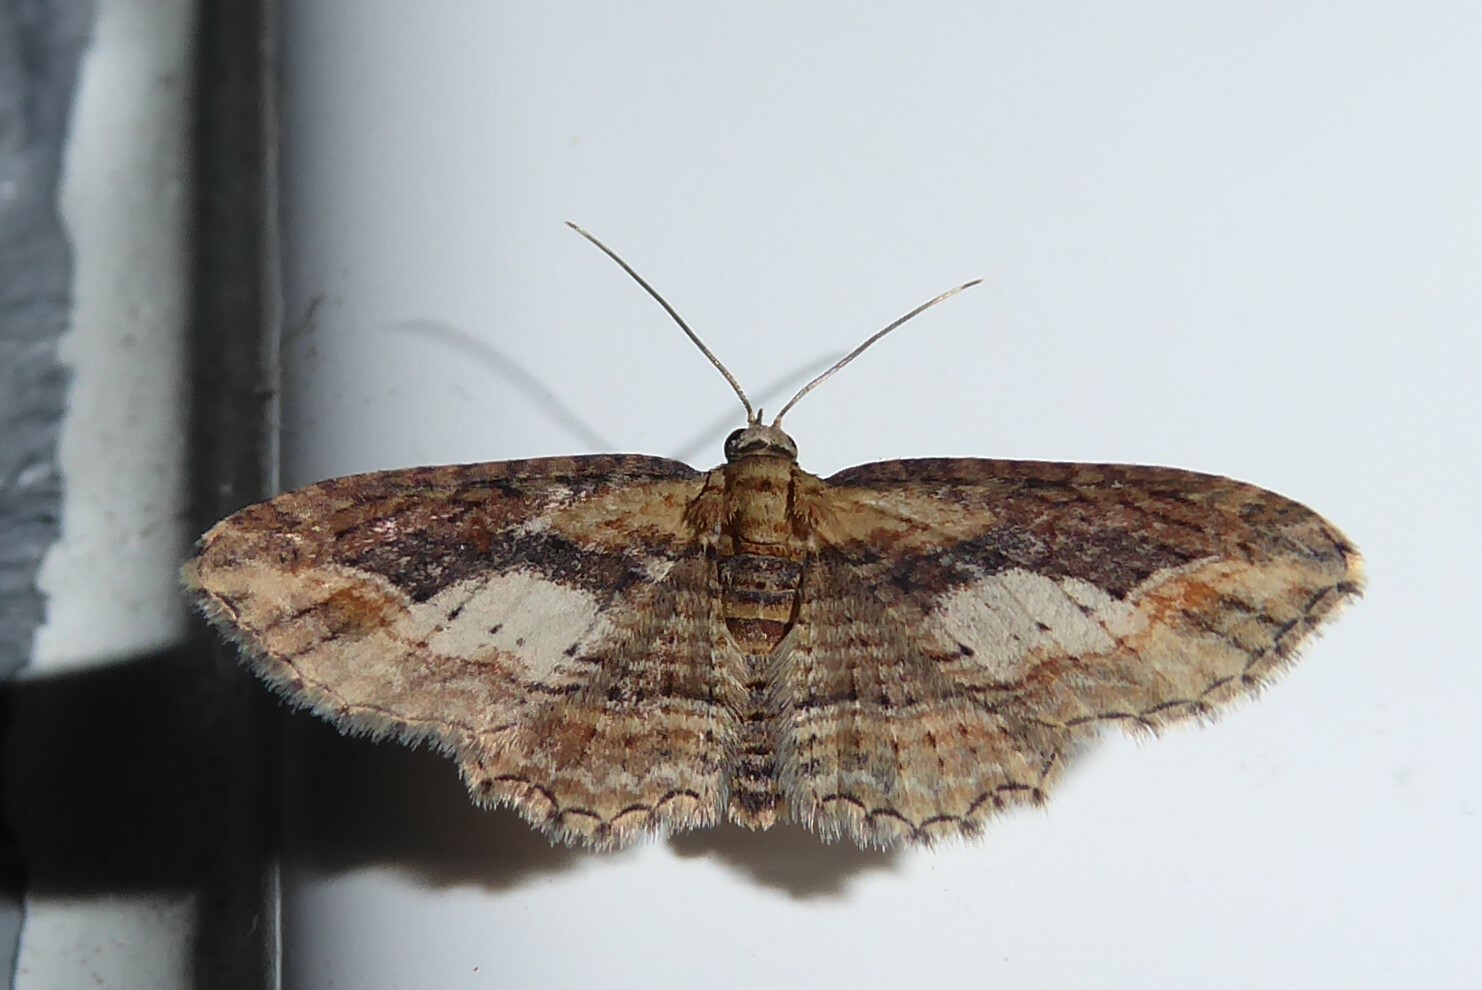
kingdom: Animalia
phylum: Arthropoda
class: Insecta
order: Lepidoptera
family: Geometridae
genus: Chloroclystis
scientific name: Chloroclystis filata
